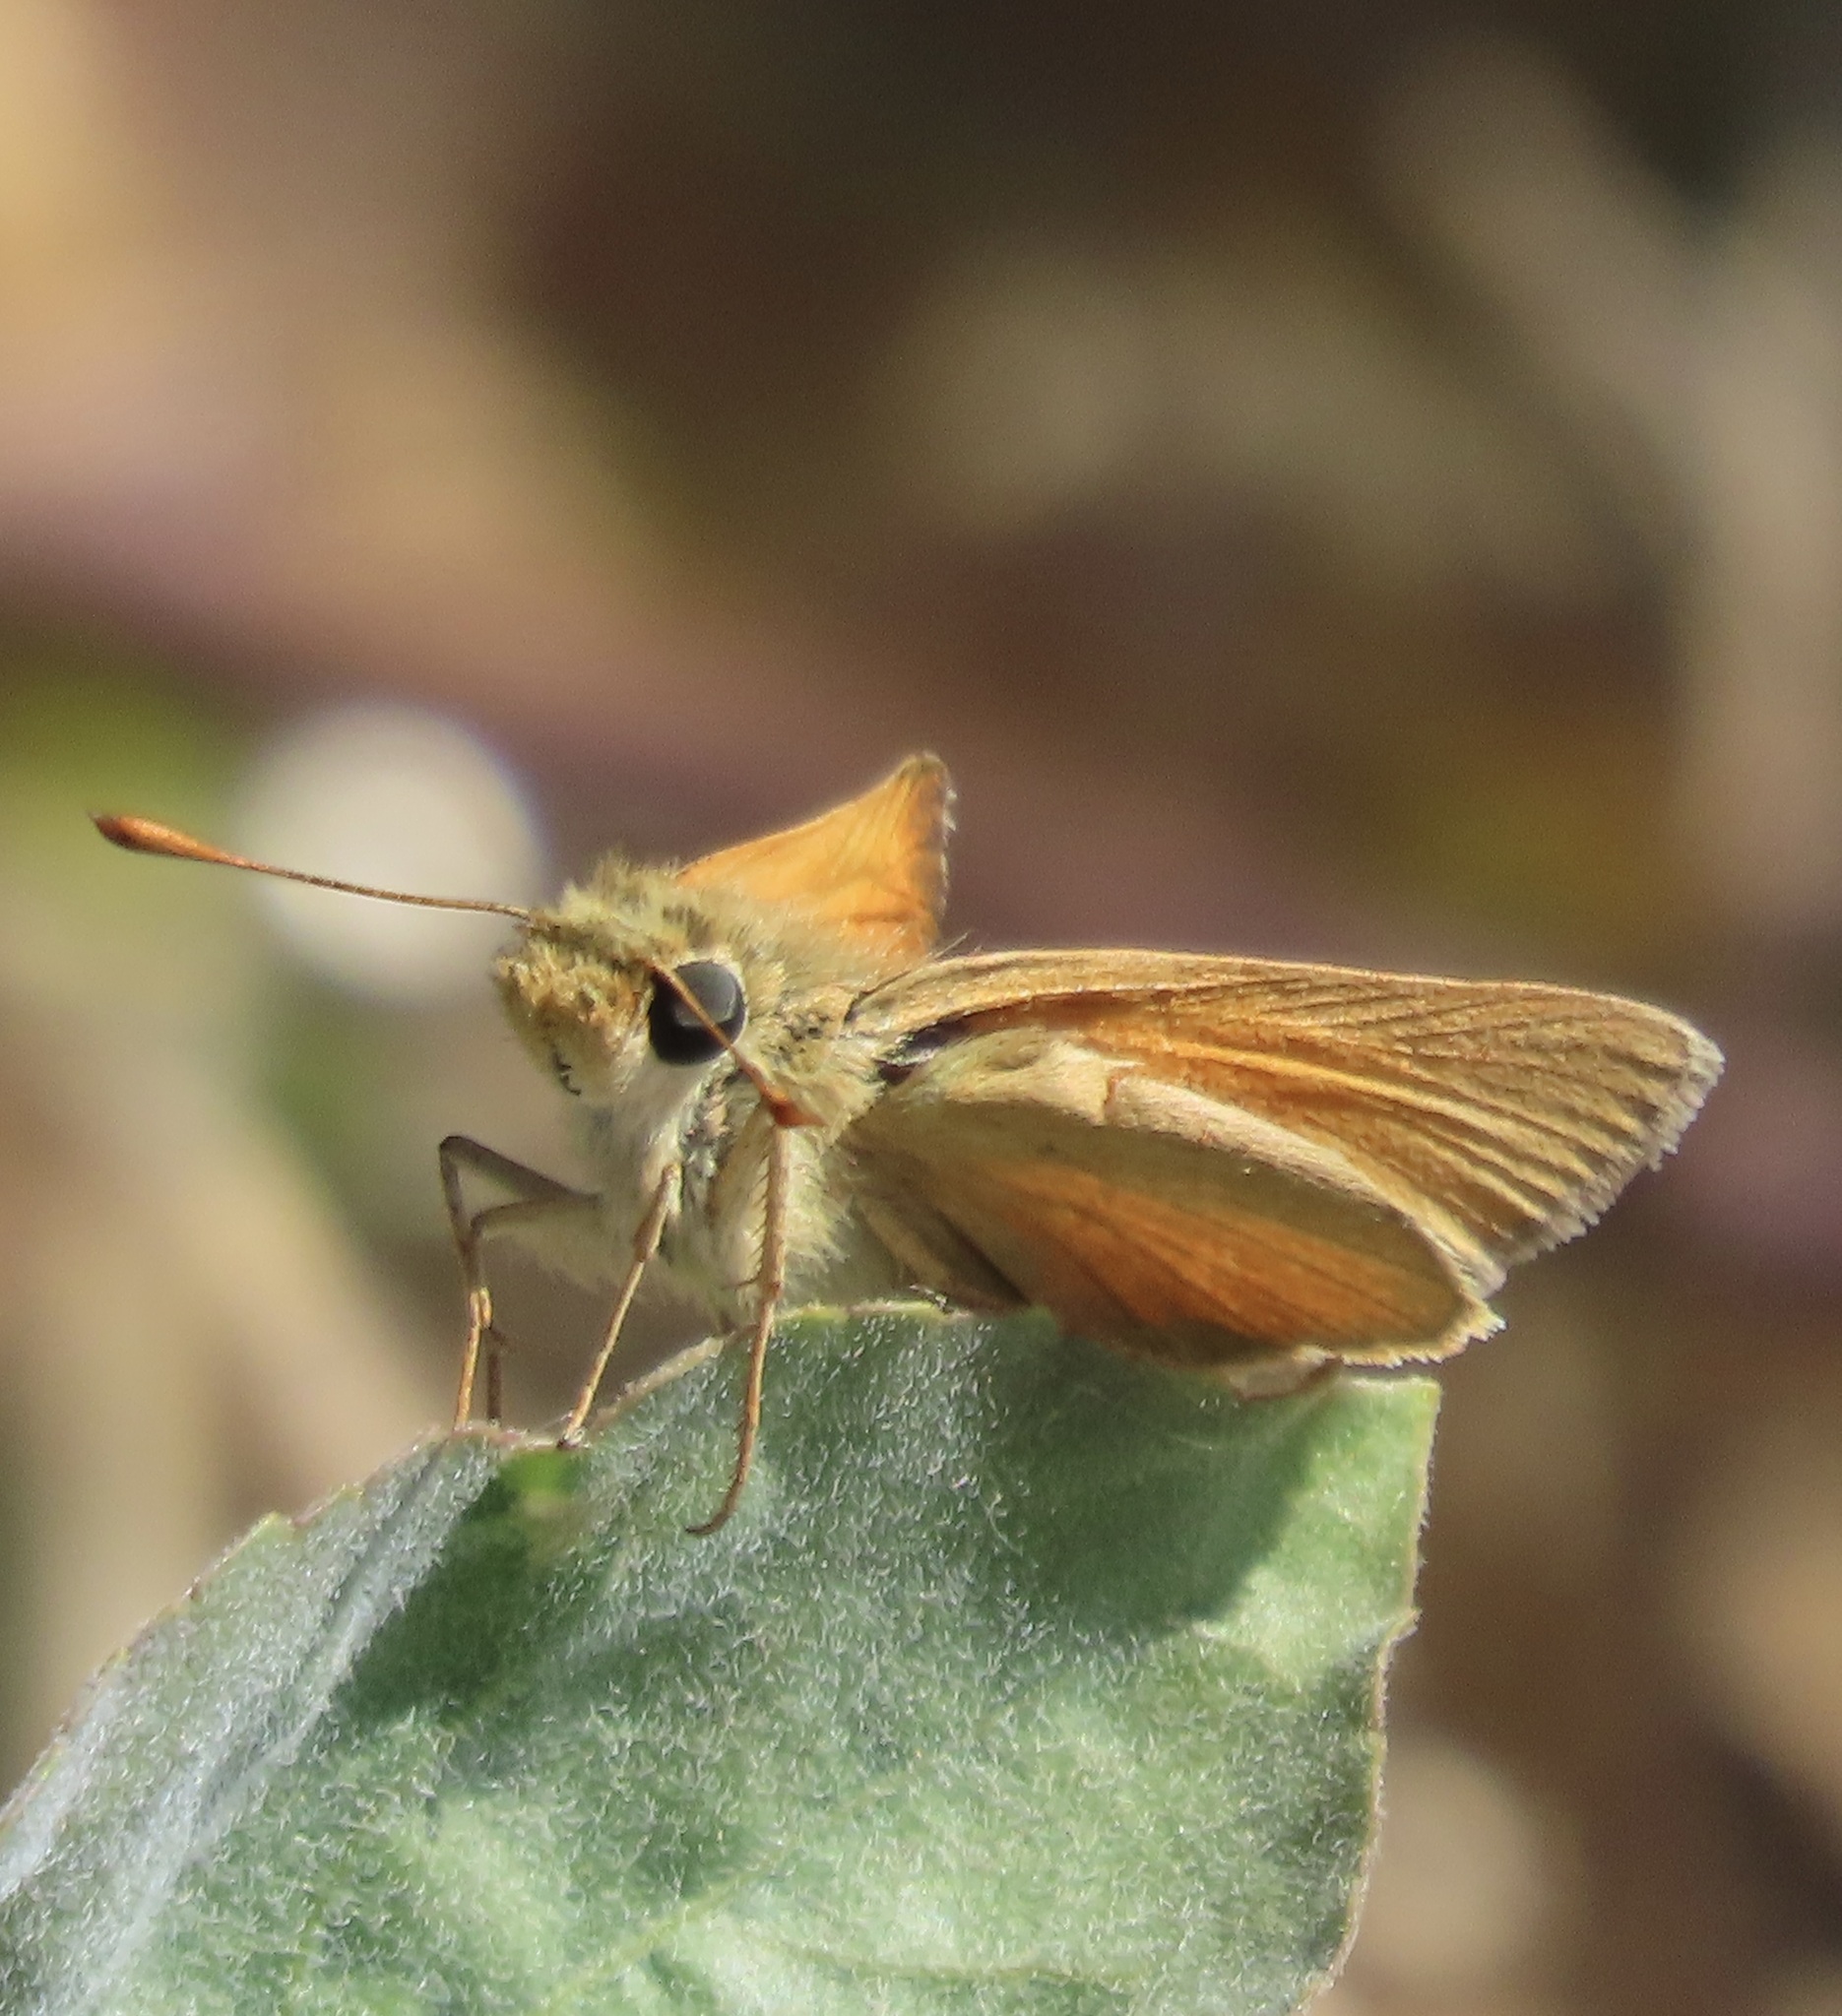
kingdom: Animalia
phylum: Arthropoda
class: Insecta
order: Lepidoptera
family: Hesperiidae
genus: Ochlodes
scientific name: Ochlodes sylvanoides
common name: Woodland skipper
